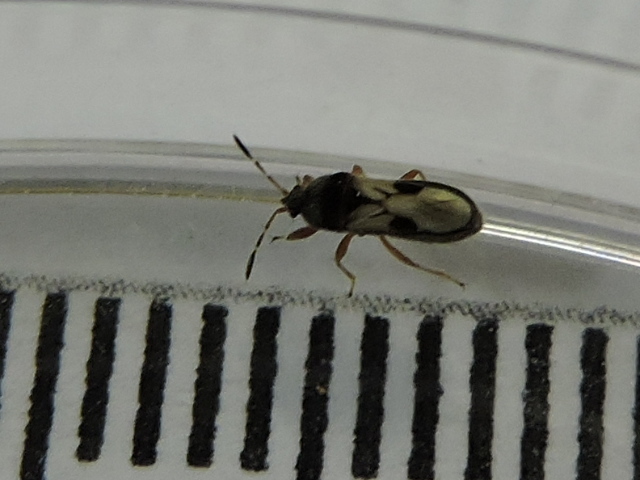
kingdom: Animalia
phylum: Arthropoda
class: Insecta
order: Hemiptera
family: Blissidae
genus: Blissus
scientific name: Blissus leucopterus
